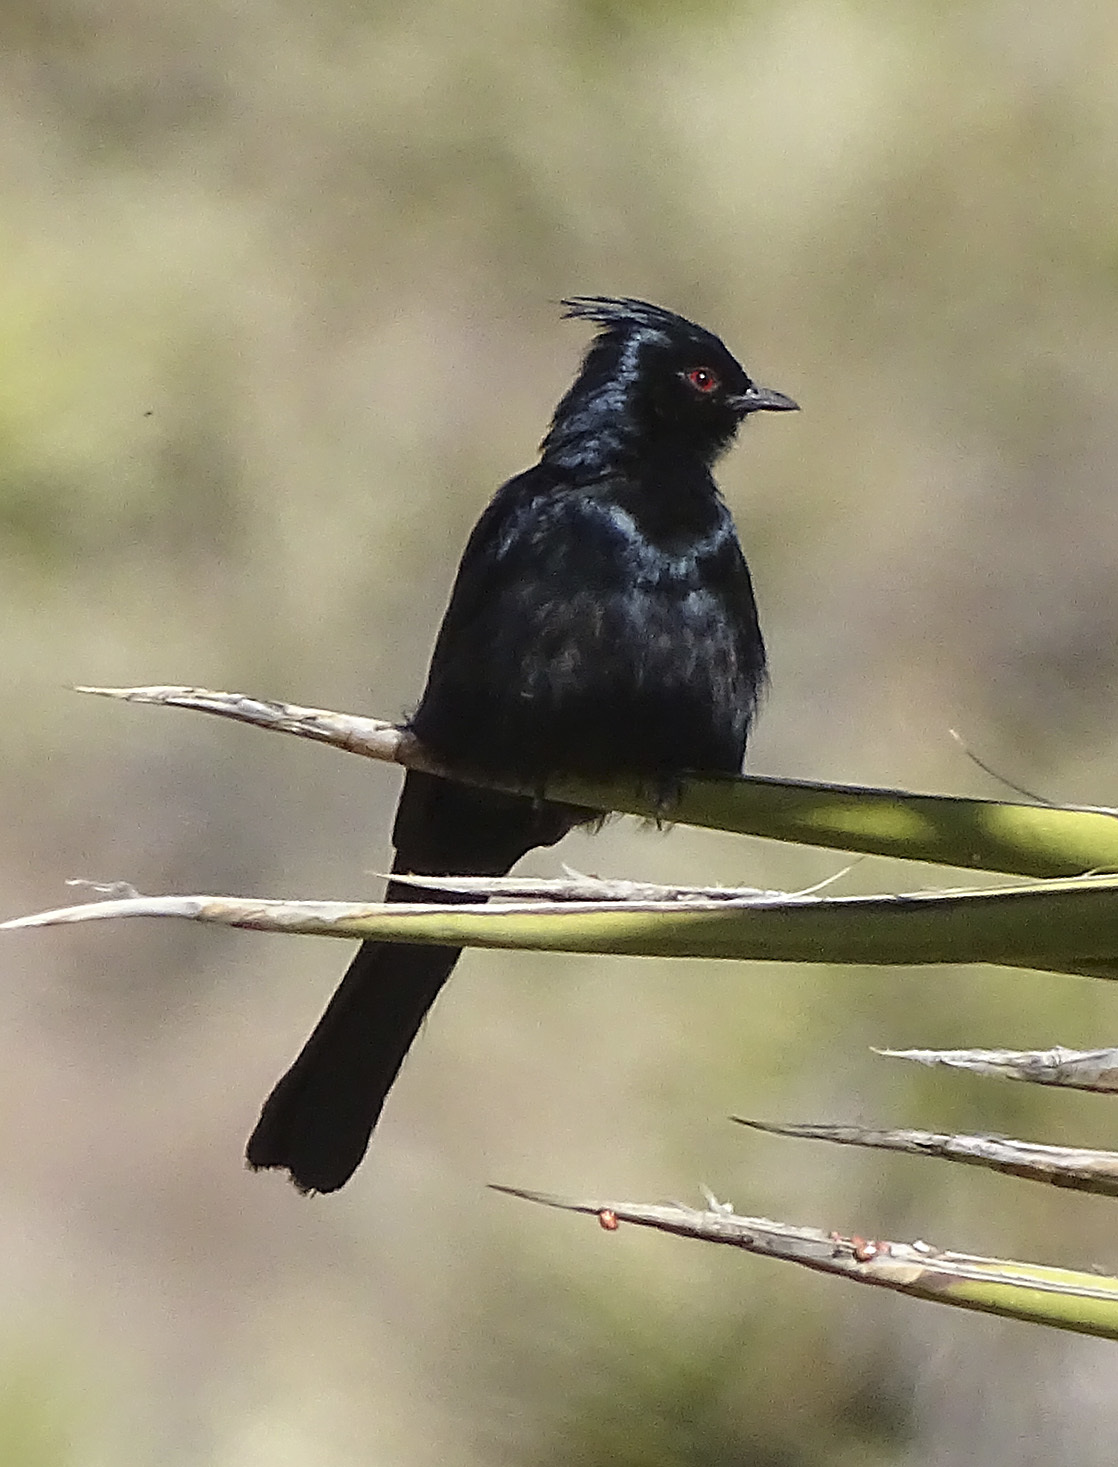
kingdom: Animalia
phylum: Chordata
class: Aves
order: Passeriformes
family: Ptilogonatidae
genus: Phainopepla
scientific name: Phainopepla nitens
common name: Phainopepla
